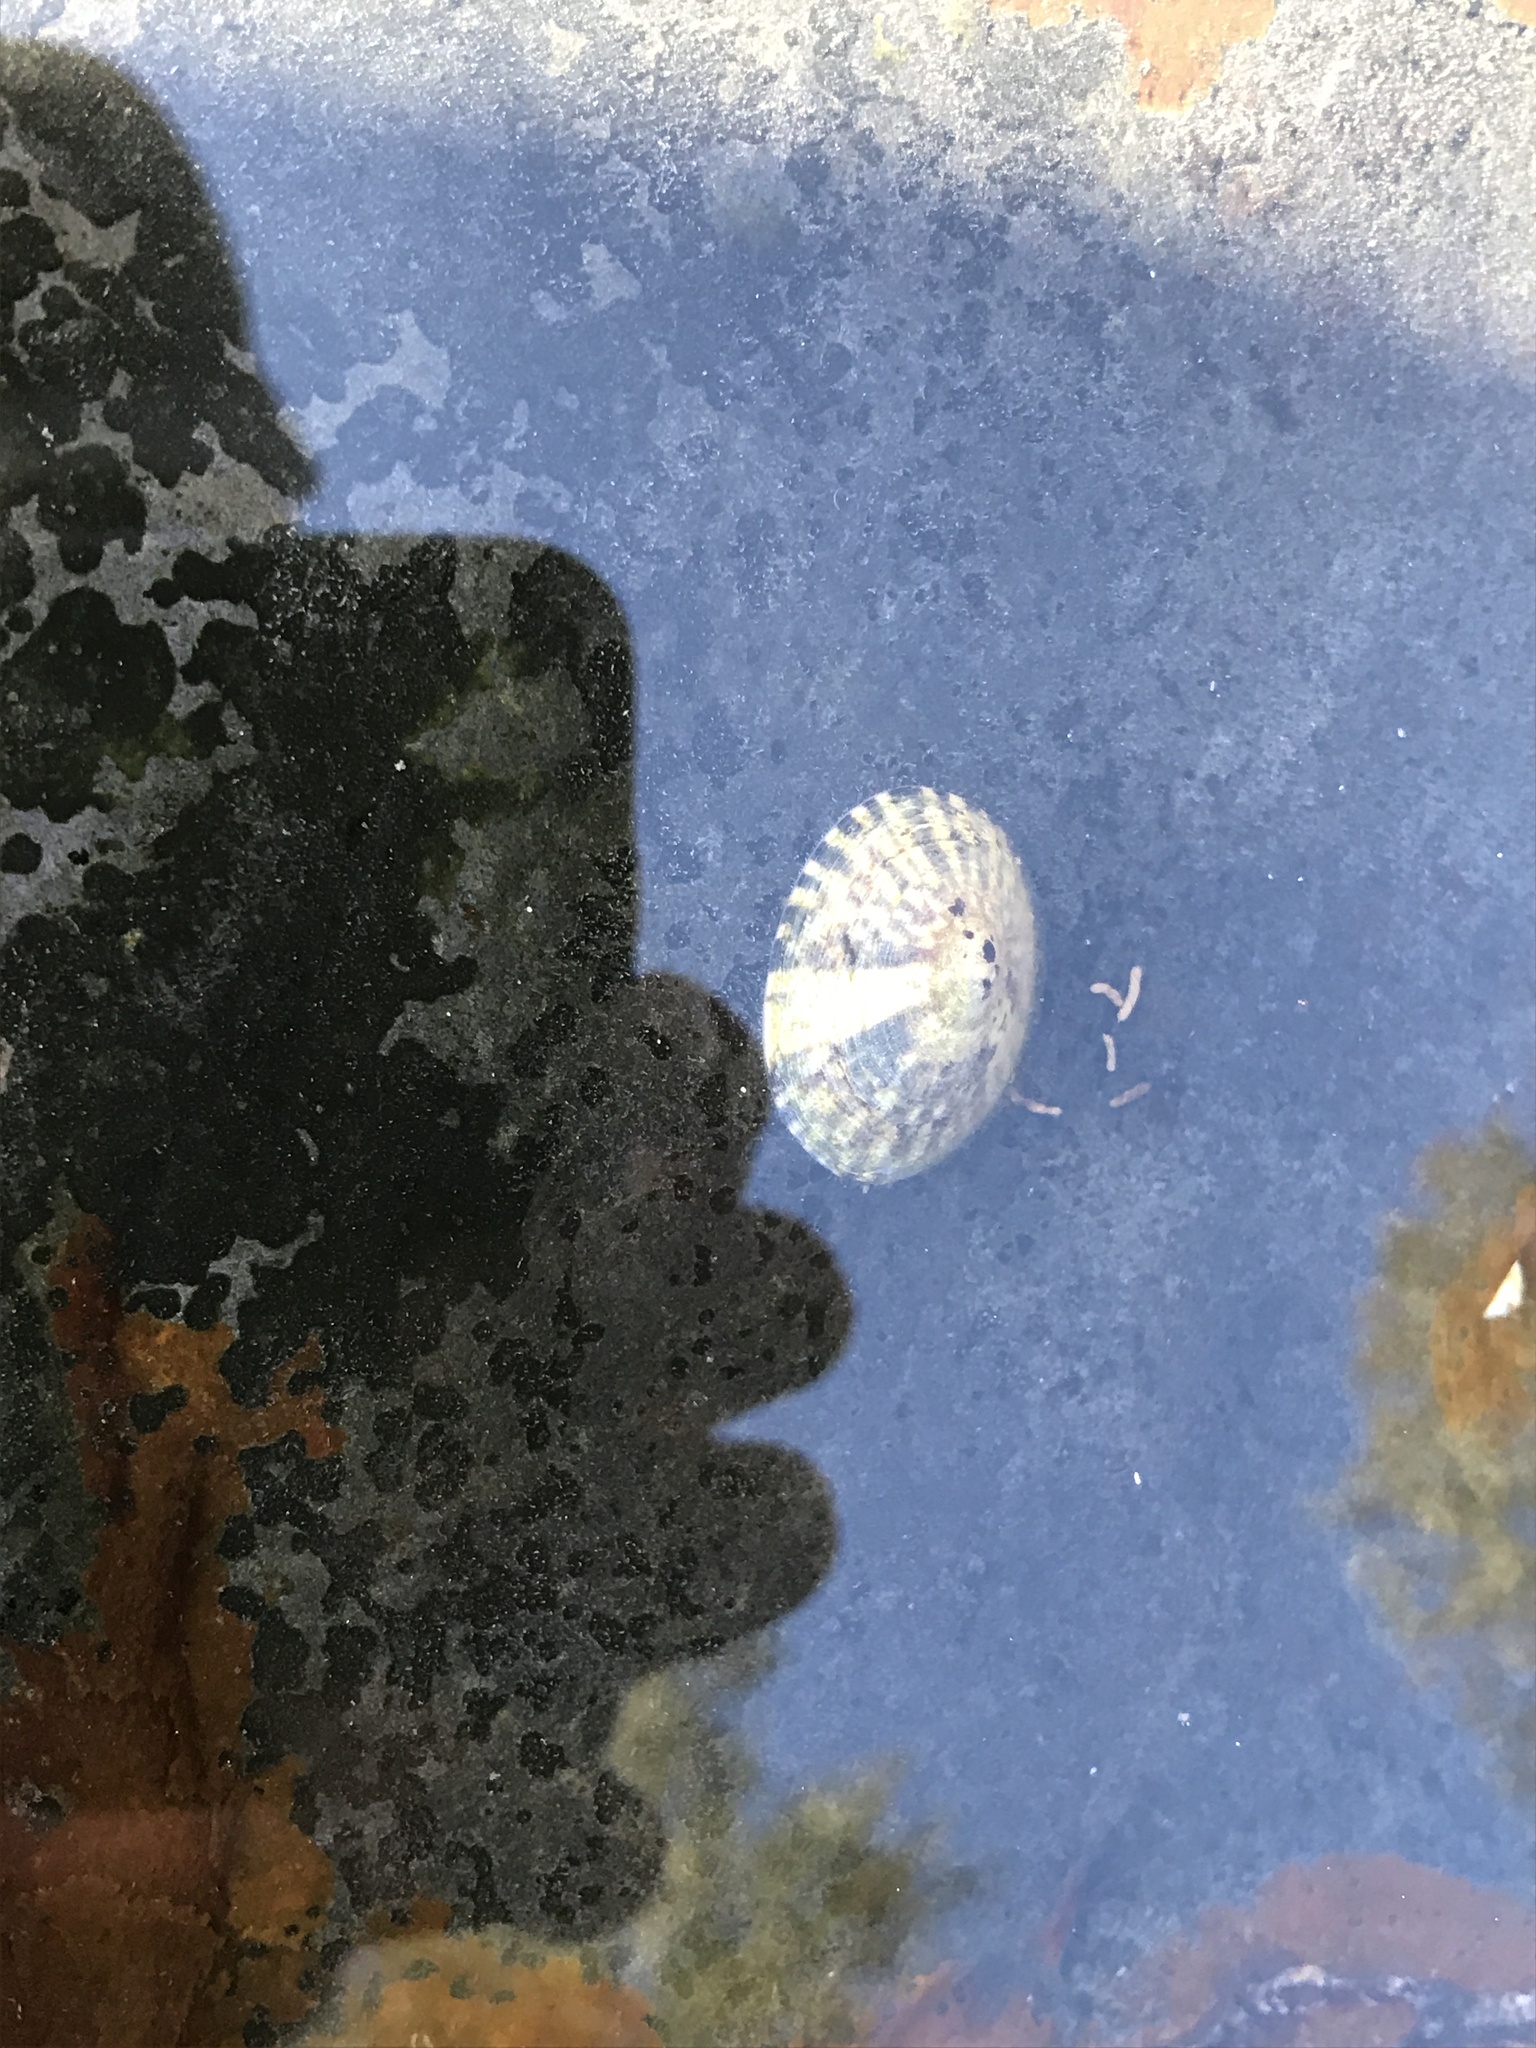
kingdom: Animalia
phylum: Mollusca
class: Gastropoda
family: Lottiidae
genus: Testudinalia
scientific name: Testudinalia testudinalis
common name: Common tortoiseshell limpet
